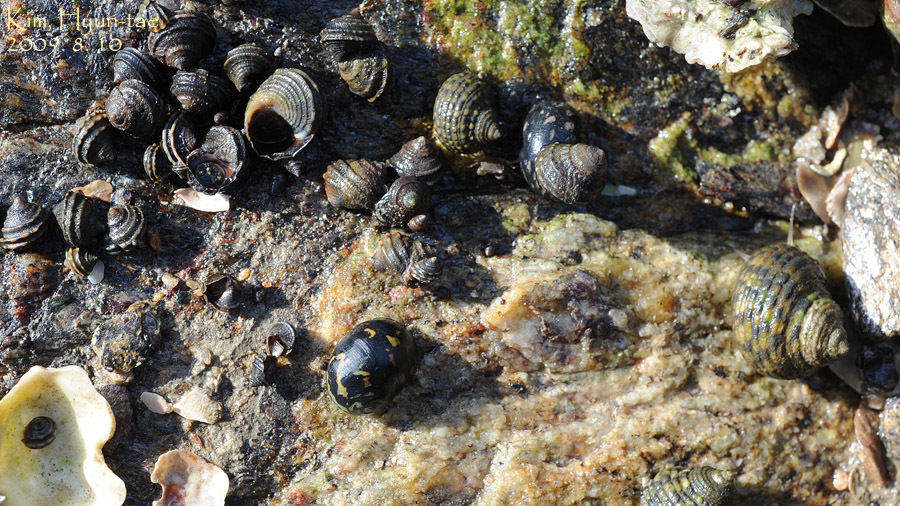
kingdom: Animalia
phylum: Mollusca
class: Gastropoda
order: Littorinimorpha
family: Littorinidae
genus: Littorina
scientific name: Littorina brevicula
